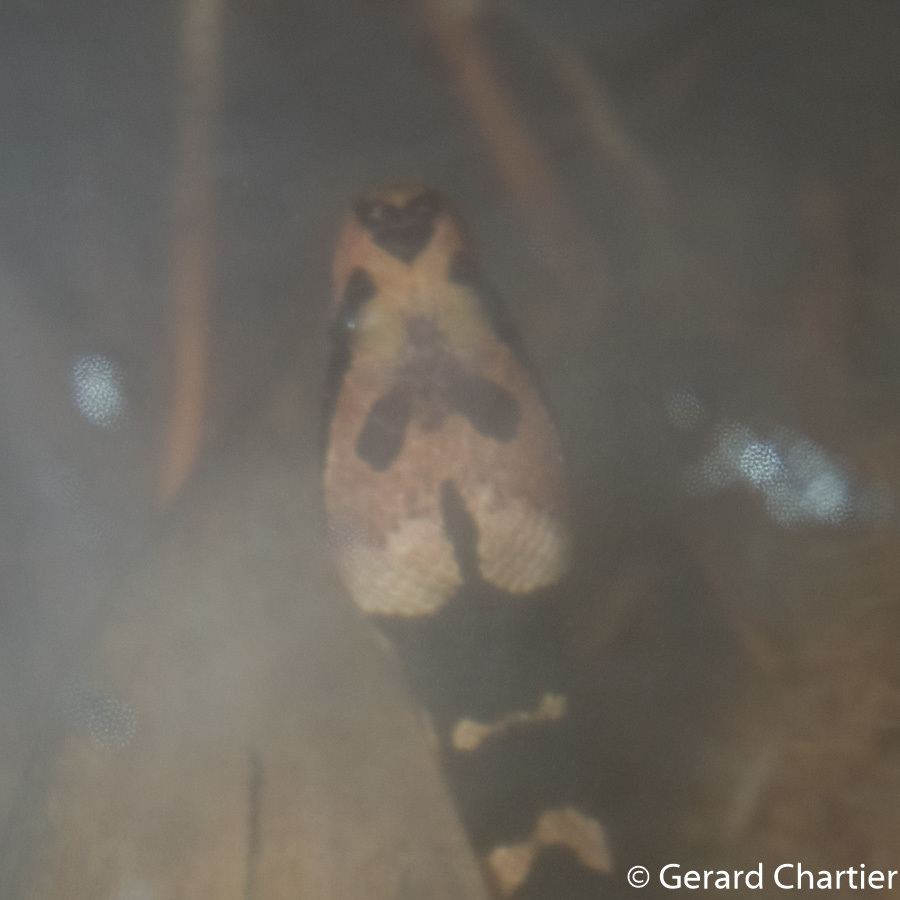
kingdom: Animalia
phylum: Chordata
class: Squamata
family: Homalopsidae
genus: Homalopsis
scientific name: Homalopsis mereljcoxi
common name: Jack’s water snake
